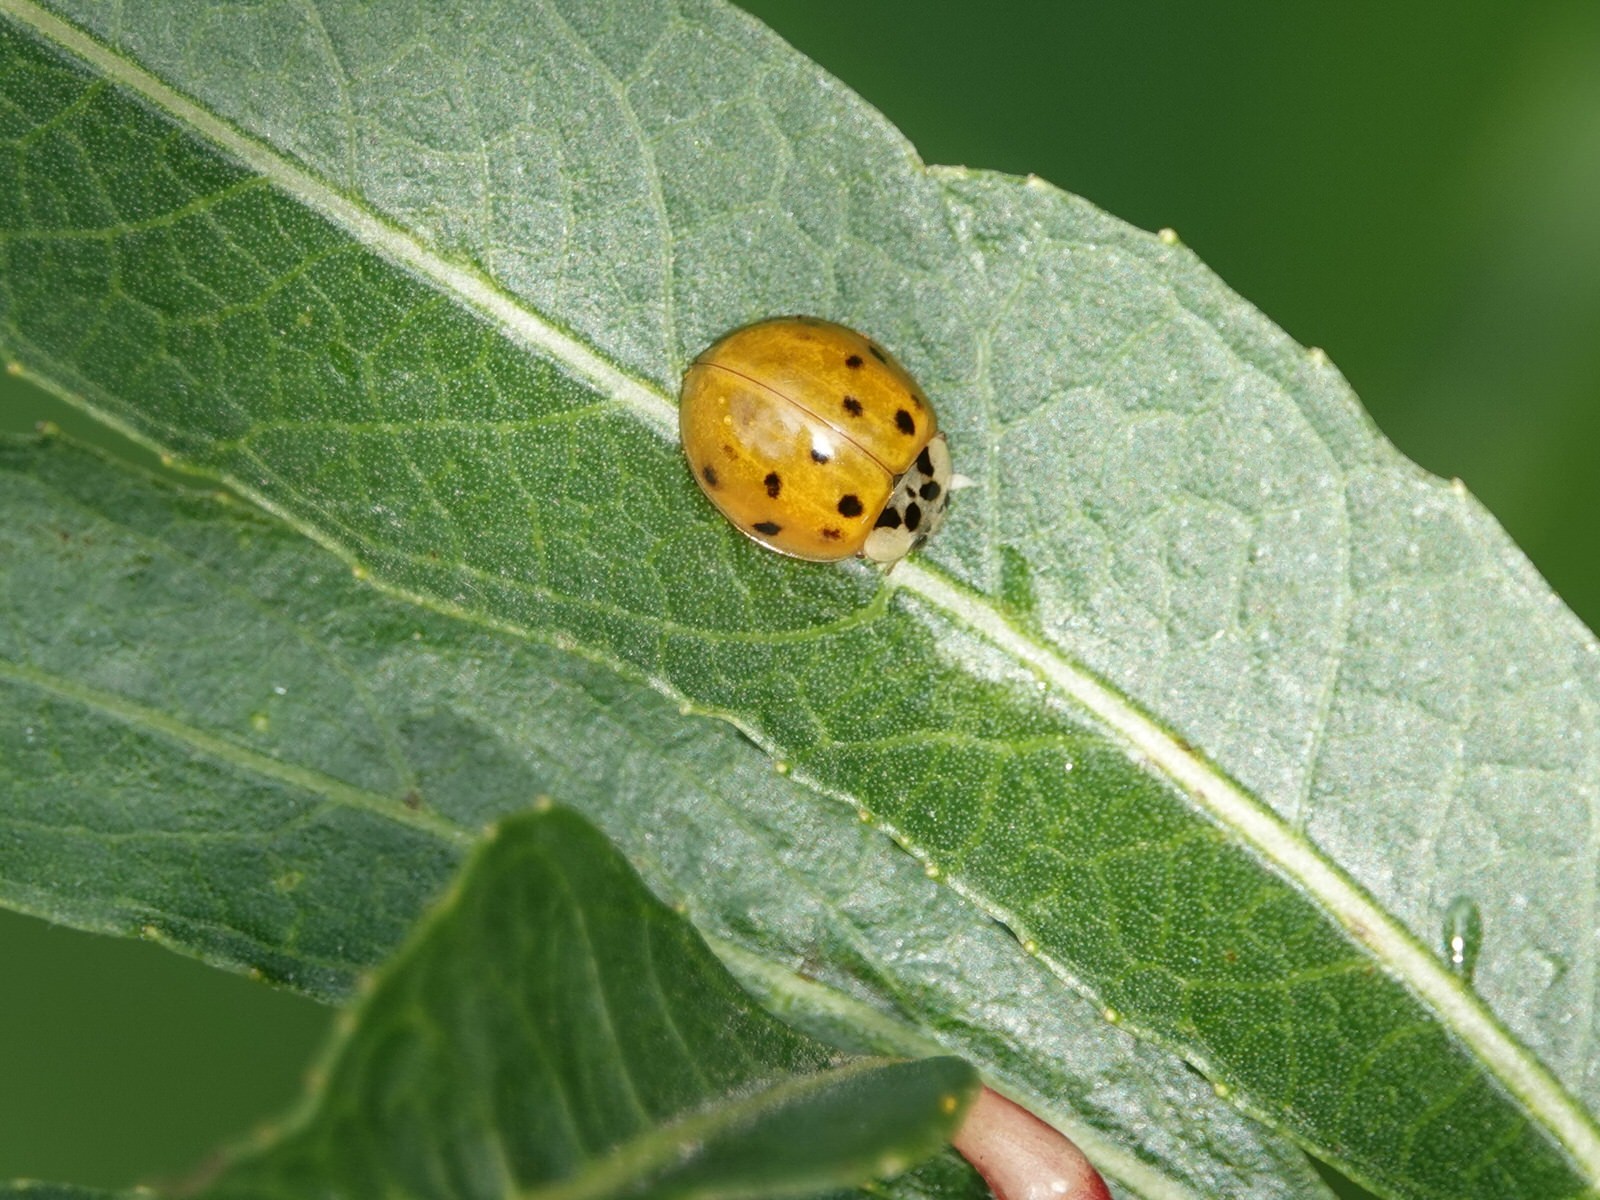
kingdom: Animalia
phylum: Arthropoda
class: Insecta
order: Coleoptera
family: Coccinellidae
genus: Harmonia
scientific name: Harmonia axyridis
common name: Harlequin ladybird
